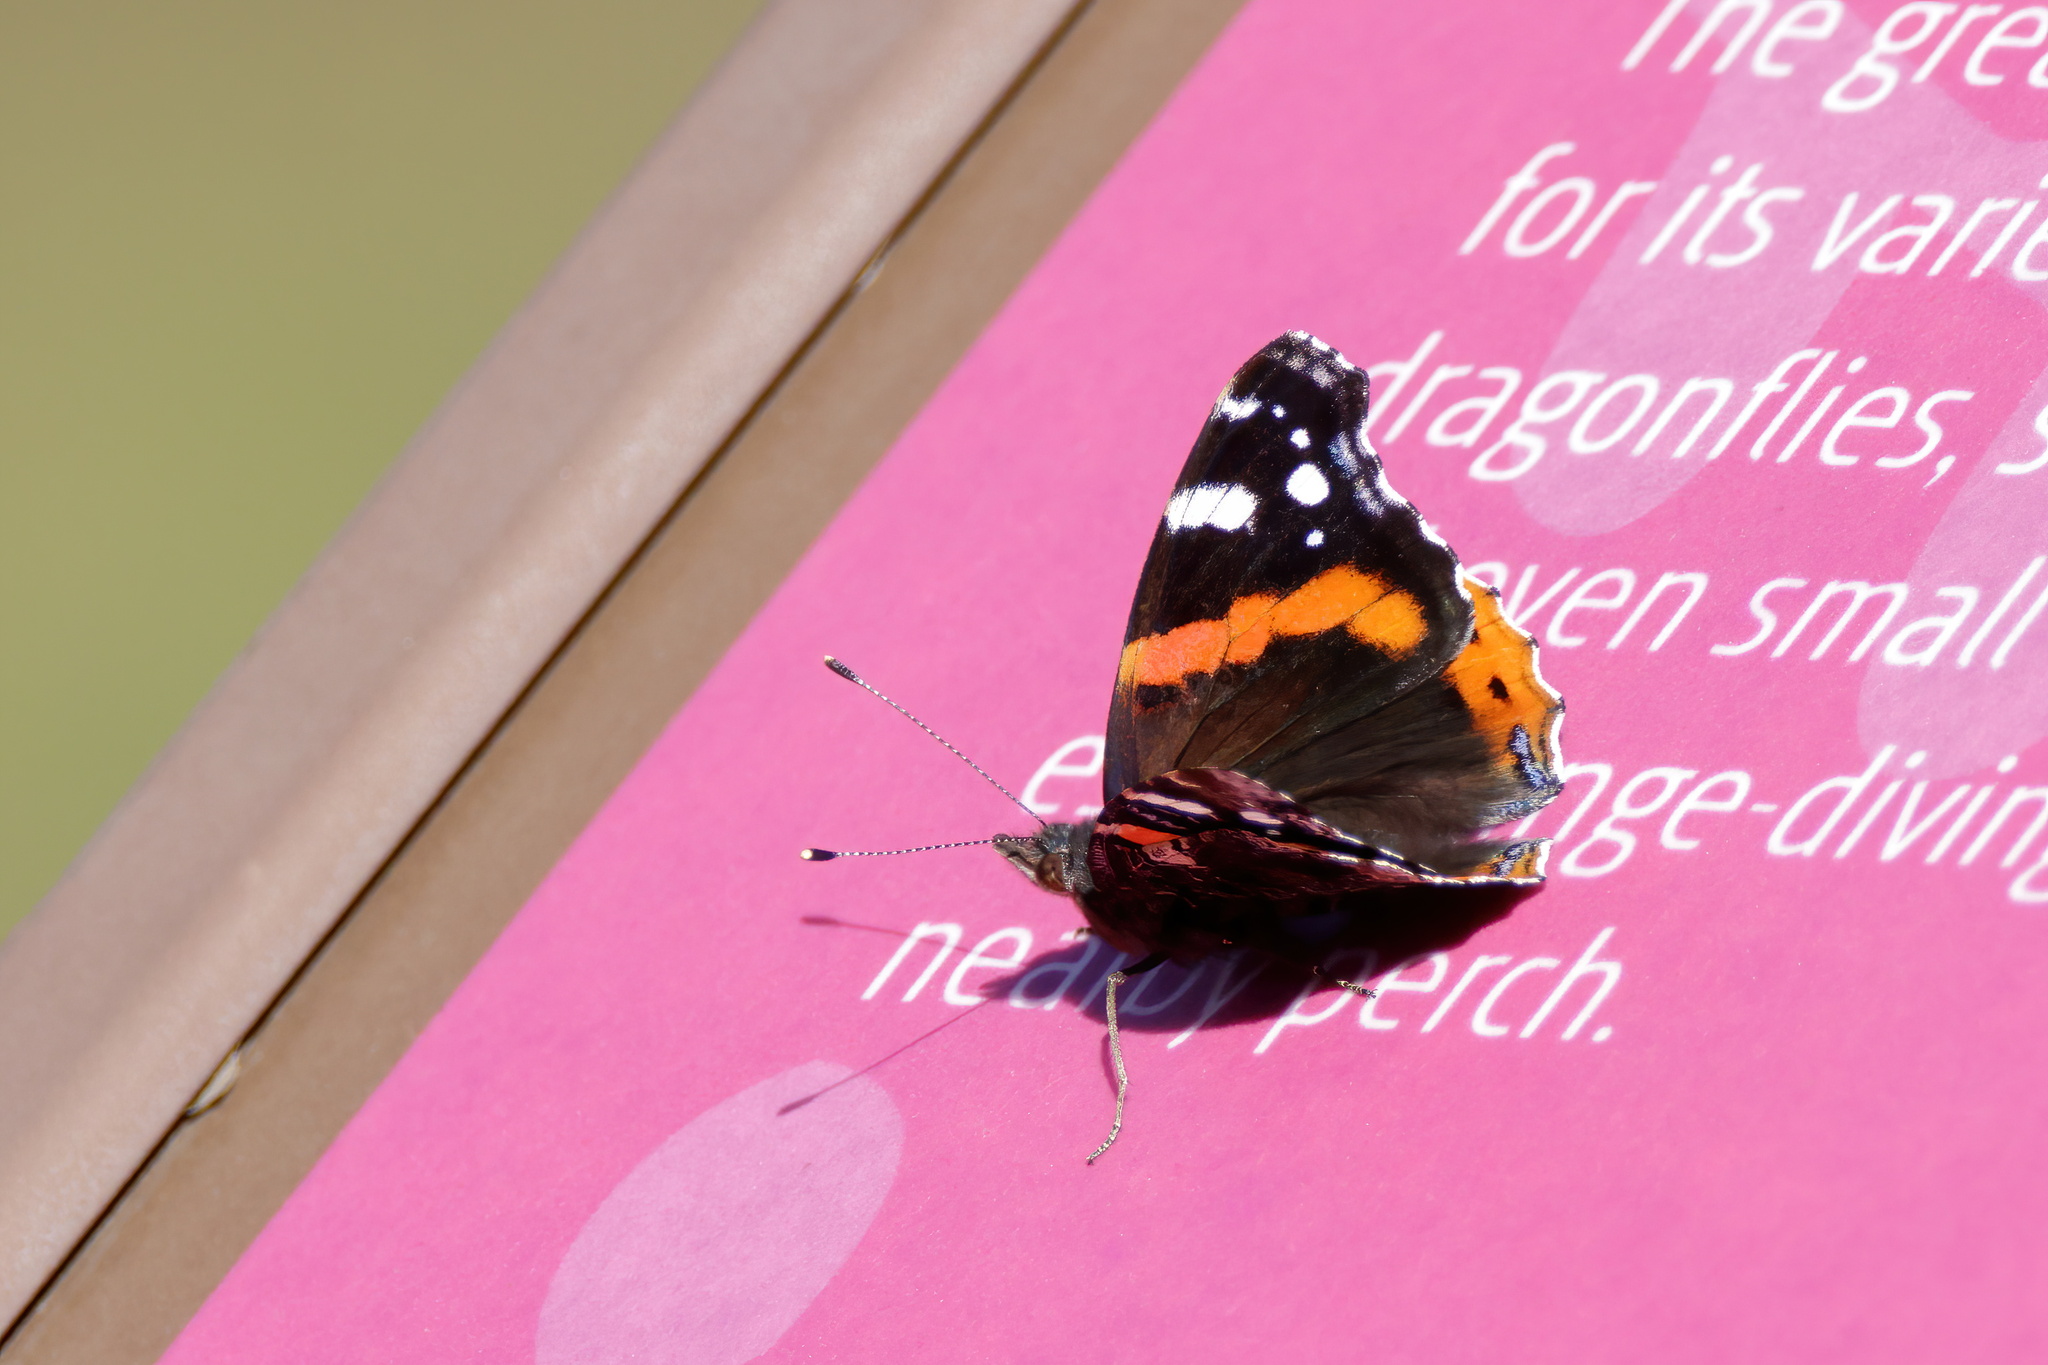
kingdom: Animalia
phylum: Arthropoda
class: Insecta
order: Lepidoptera
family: Nymphalidae
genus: Vanessa
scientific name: Vanessa atalanta
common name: Red admiral
